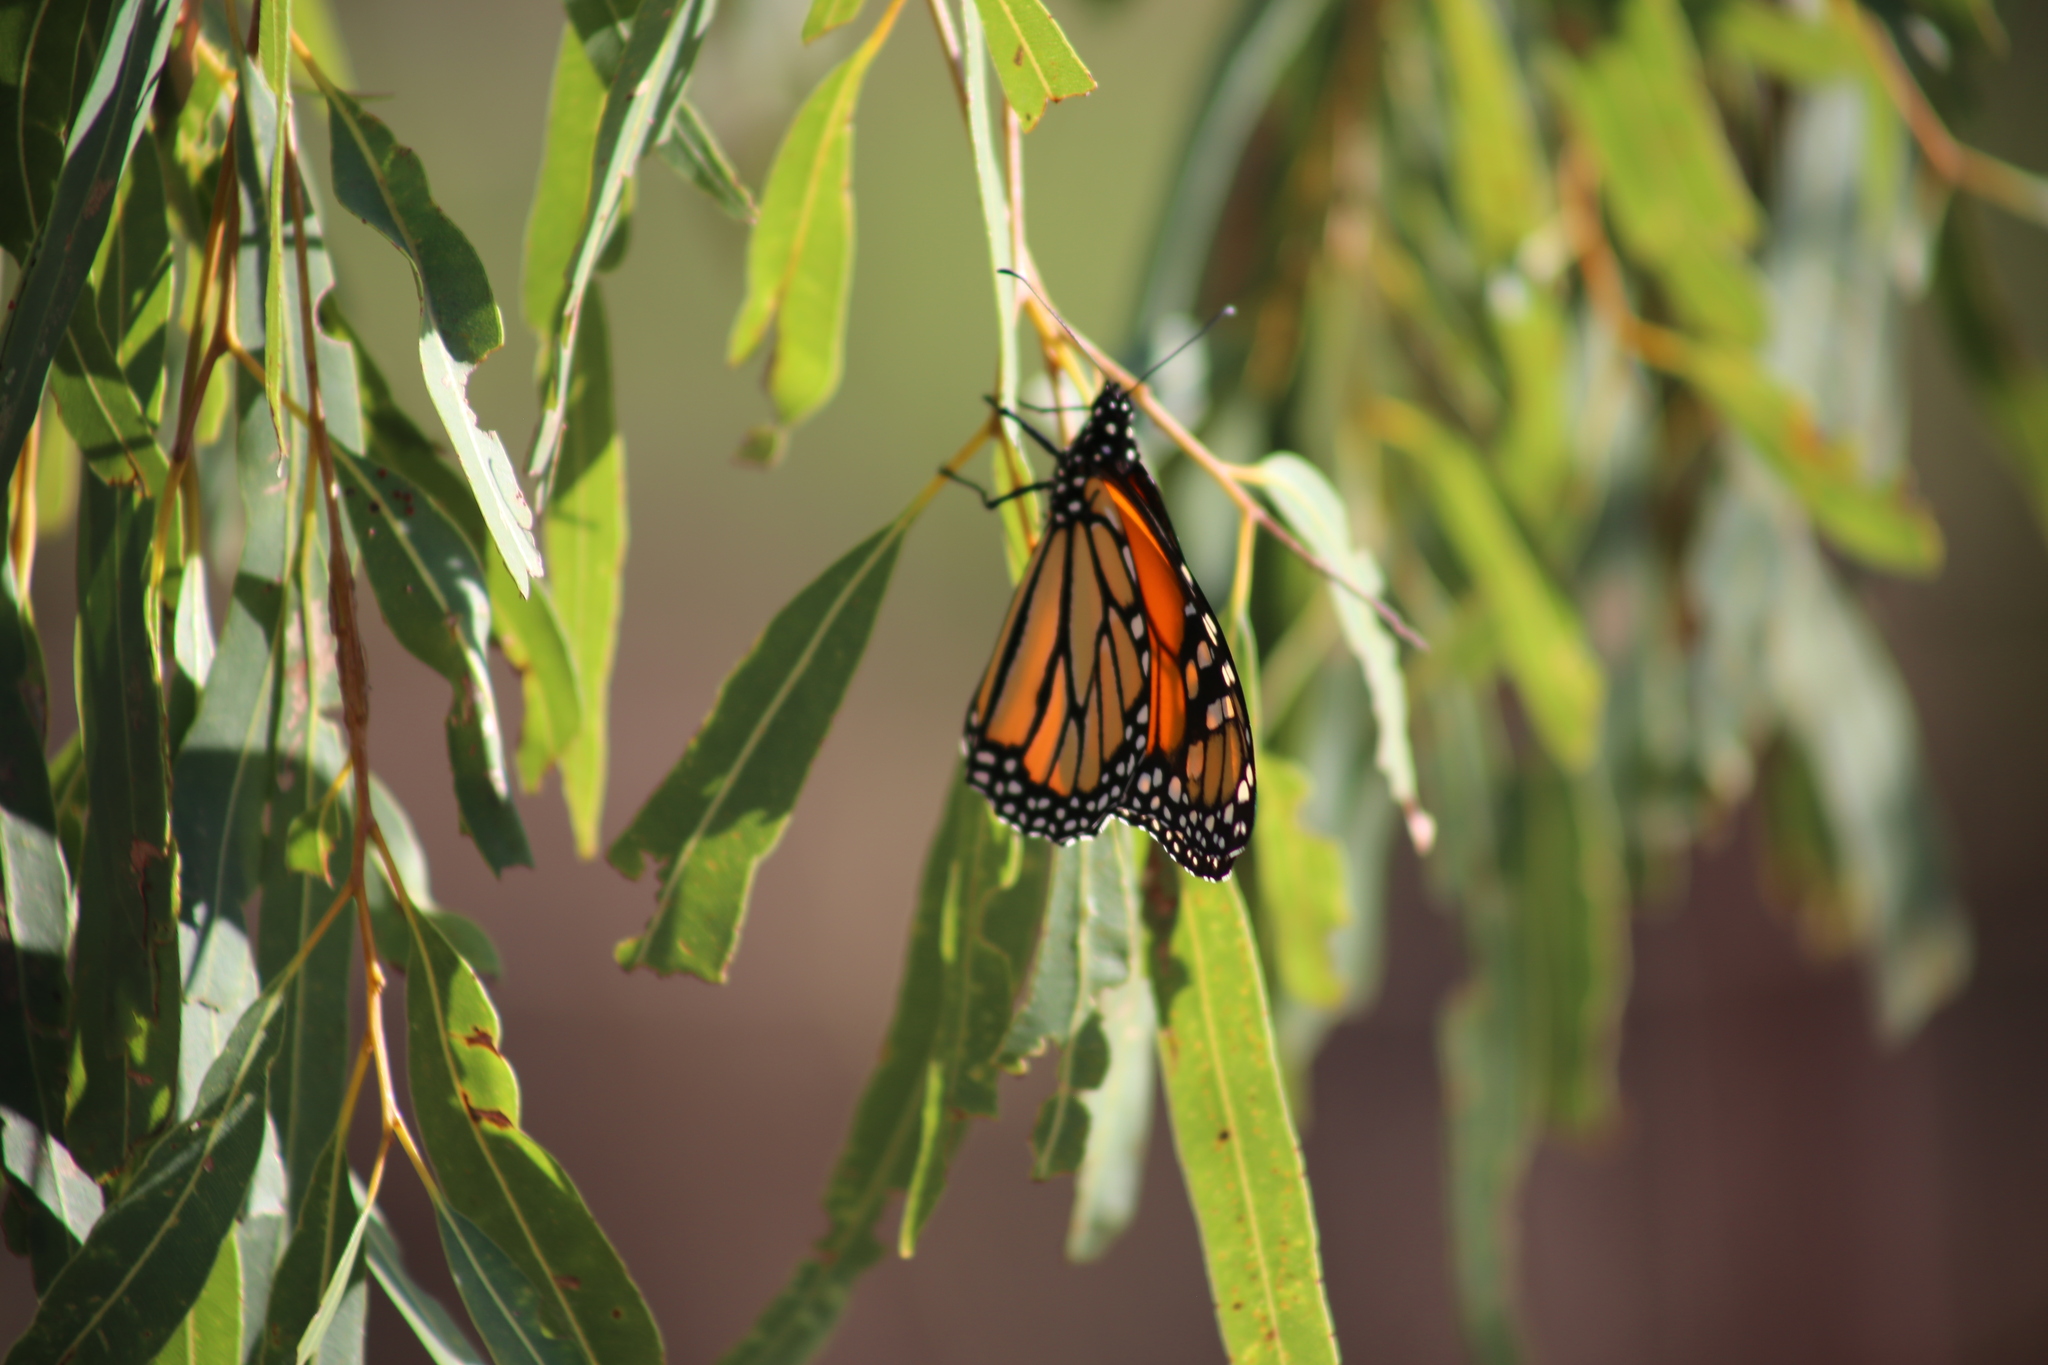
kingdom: Animalia
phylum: Arthropoda
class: Insecta
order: Lepidoptera
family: Nymphalidae
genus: Danaus
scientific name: Danaus plexippus
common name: Monarch
